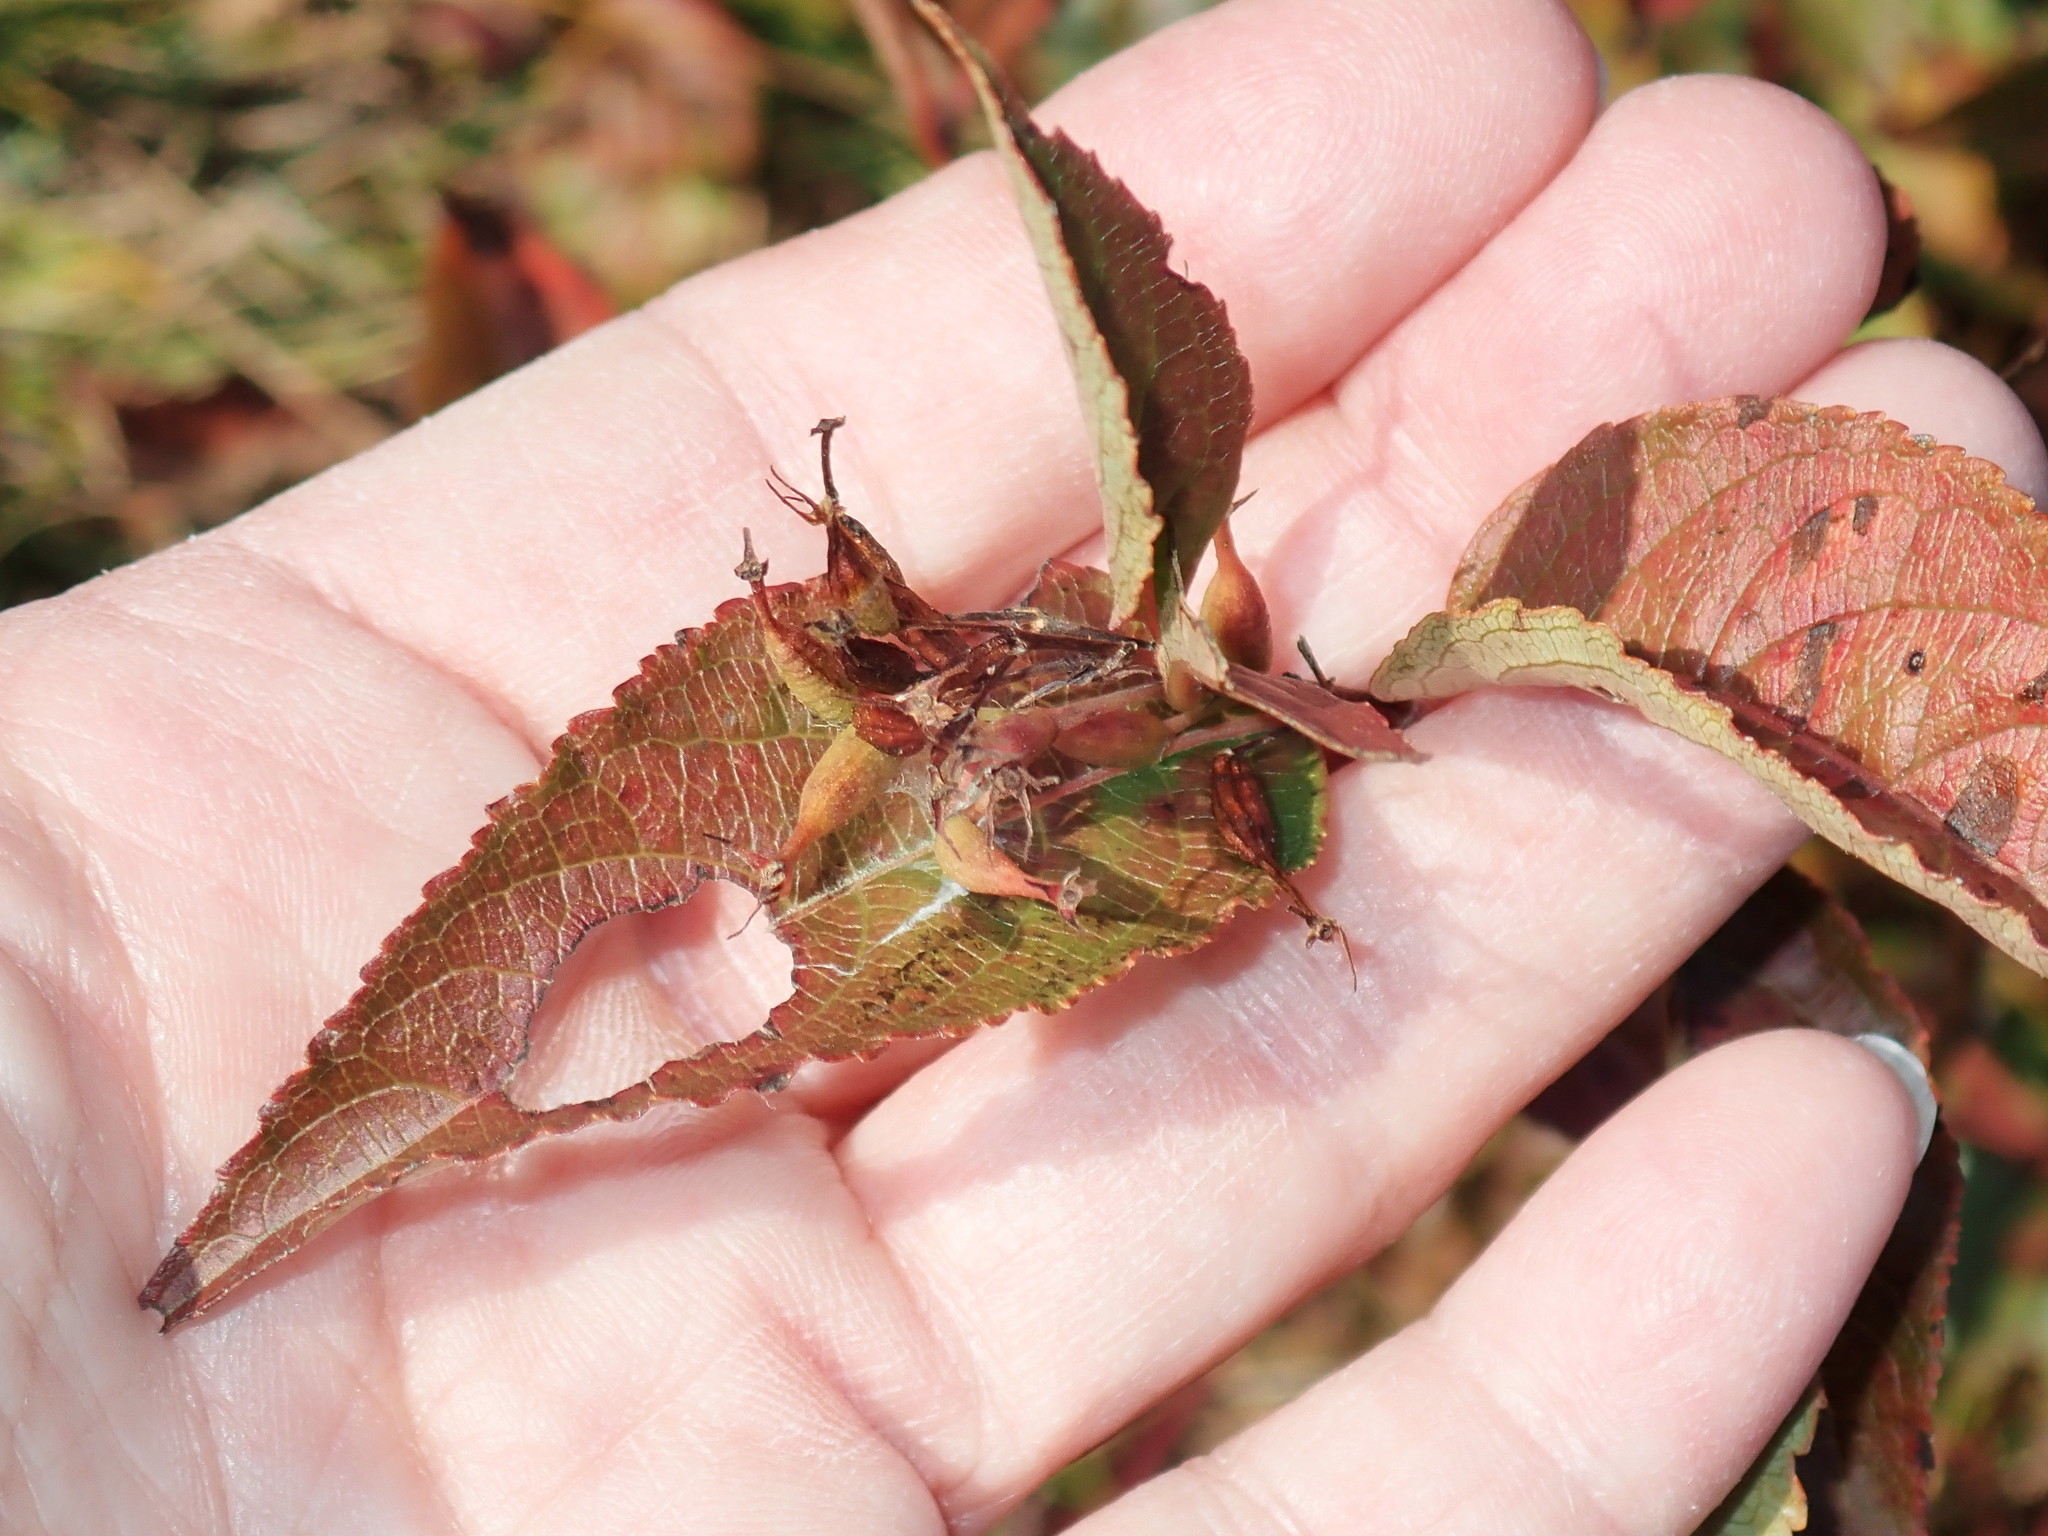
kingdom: Plantae
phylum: Tracheophyta
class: Magnoliopsida
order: Dipsacales
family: Caprifoliaceae
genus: Diervilla
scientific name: Diervilla lonicera
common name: Bush-honeysuckle
